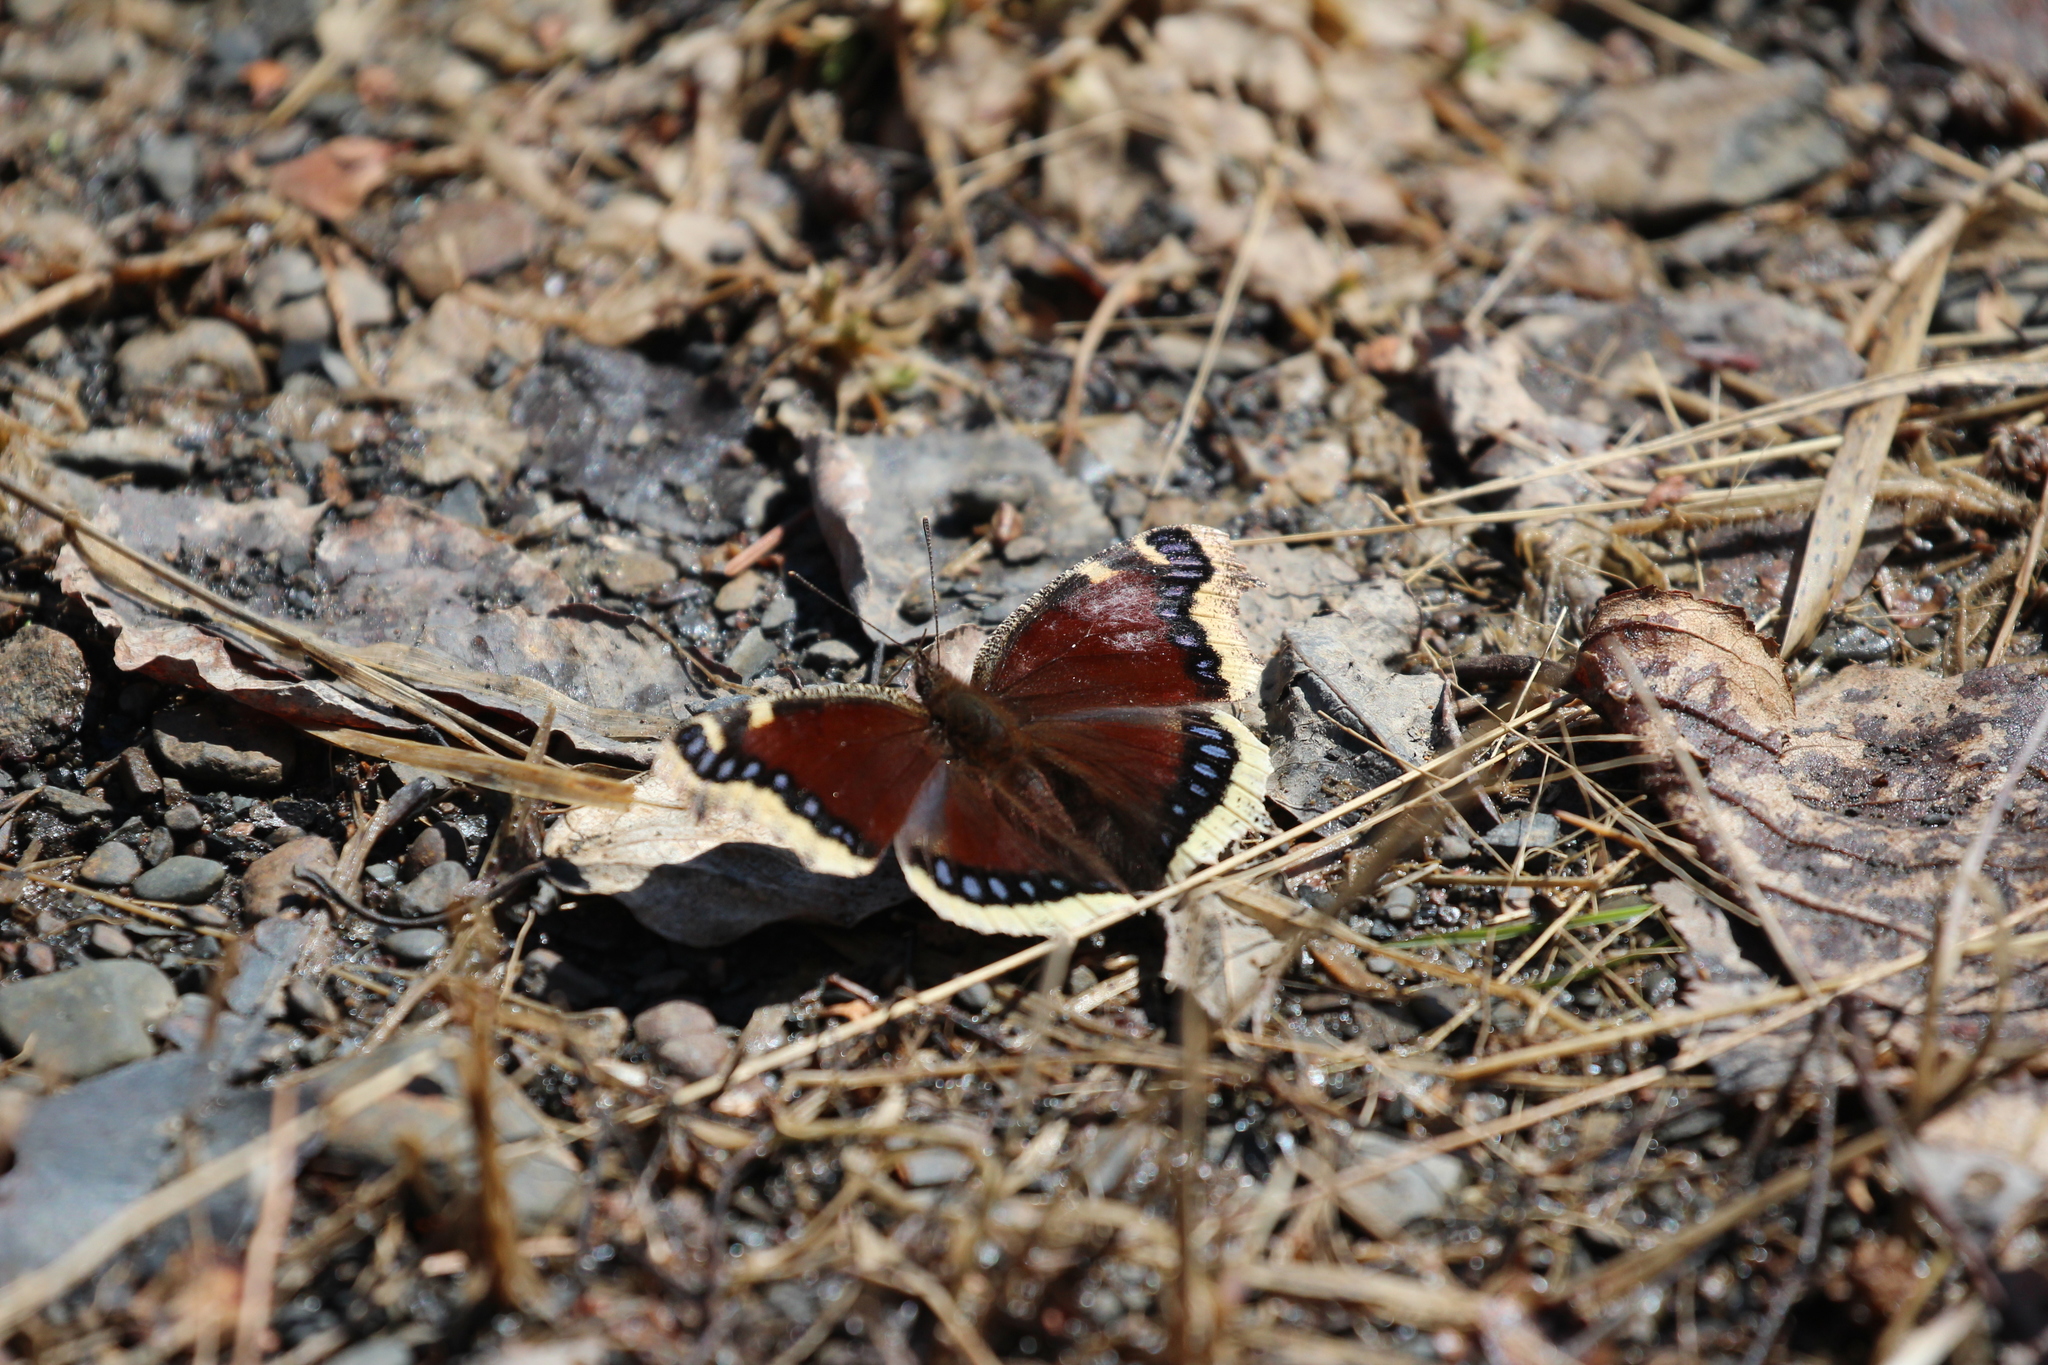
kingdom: Animalia
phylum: Arthropoda
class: Insecta
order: Lepidoptera
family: Nymphalidae
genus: Nymphalis
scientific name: Nymphalis antiopa
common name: Camberwell beauty
